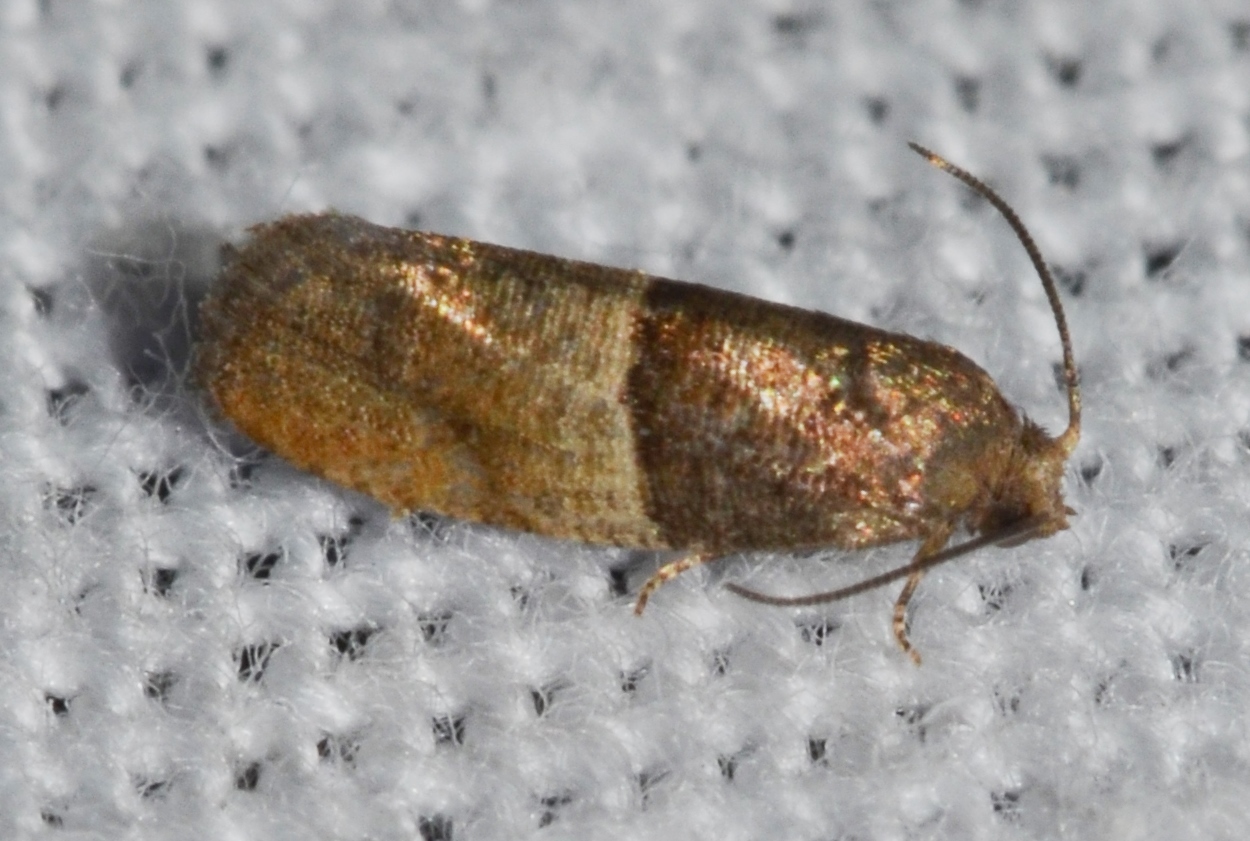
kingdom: Animalia
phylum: Arthropoda
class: Insecta
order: Lepidoptera
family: Tortricidae
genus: Larisa
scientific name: Larisa subsolana
